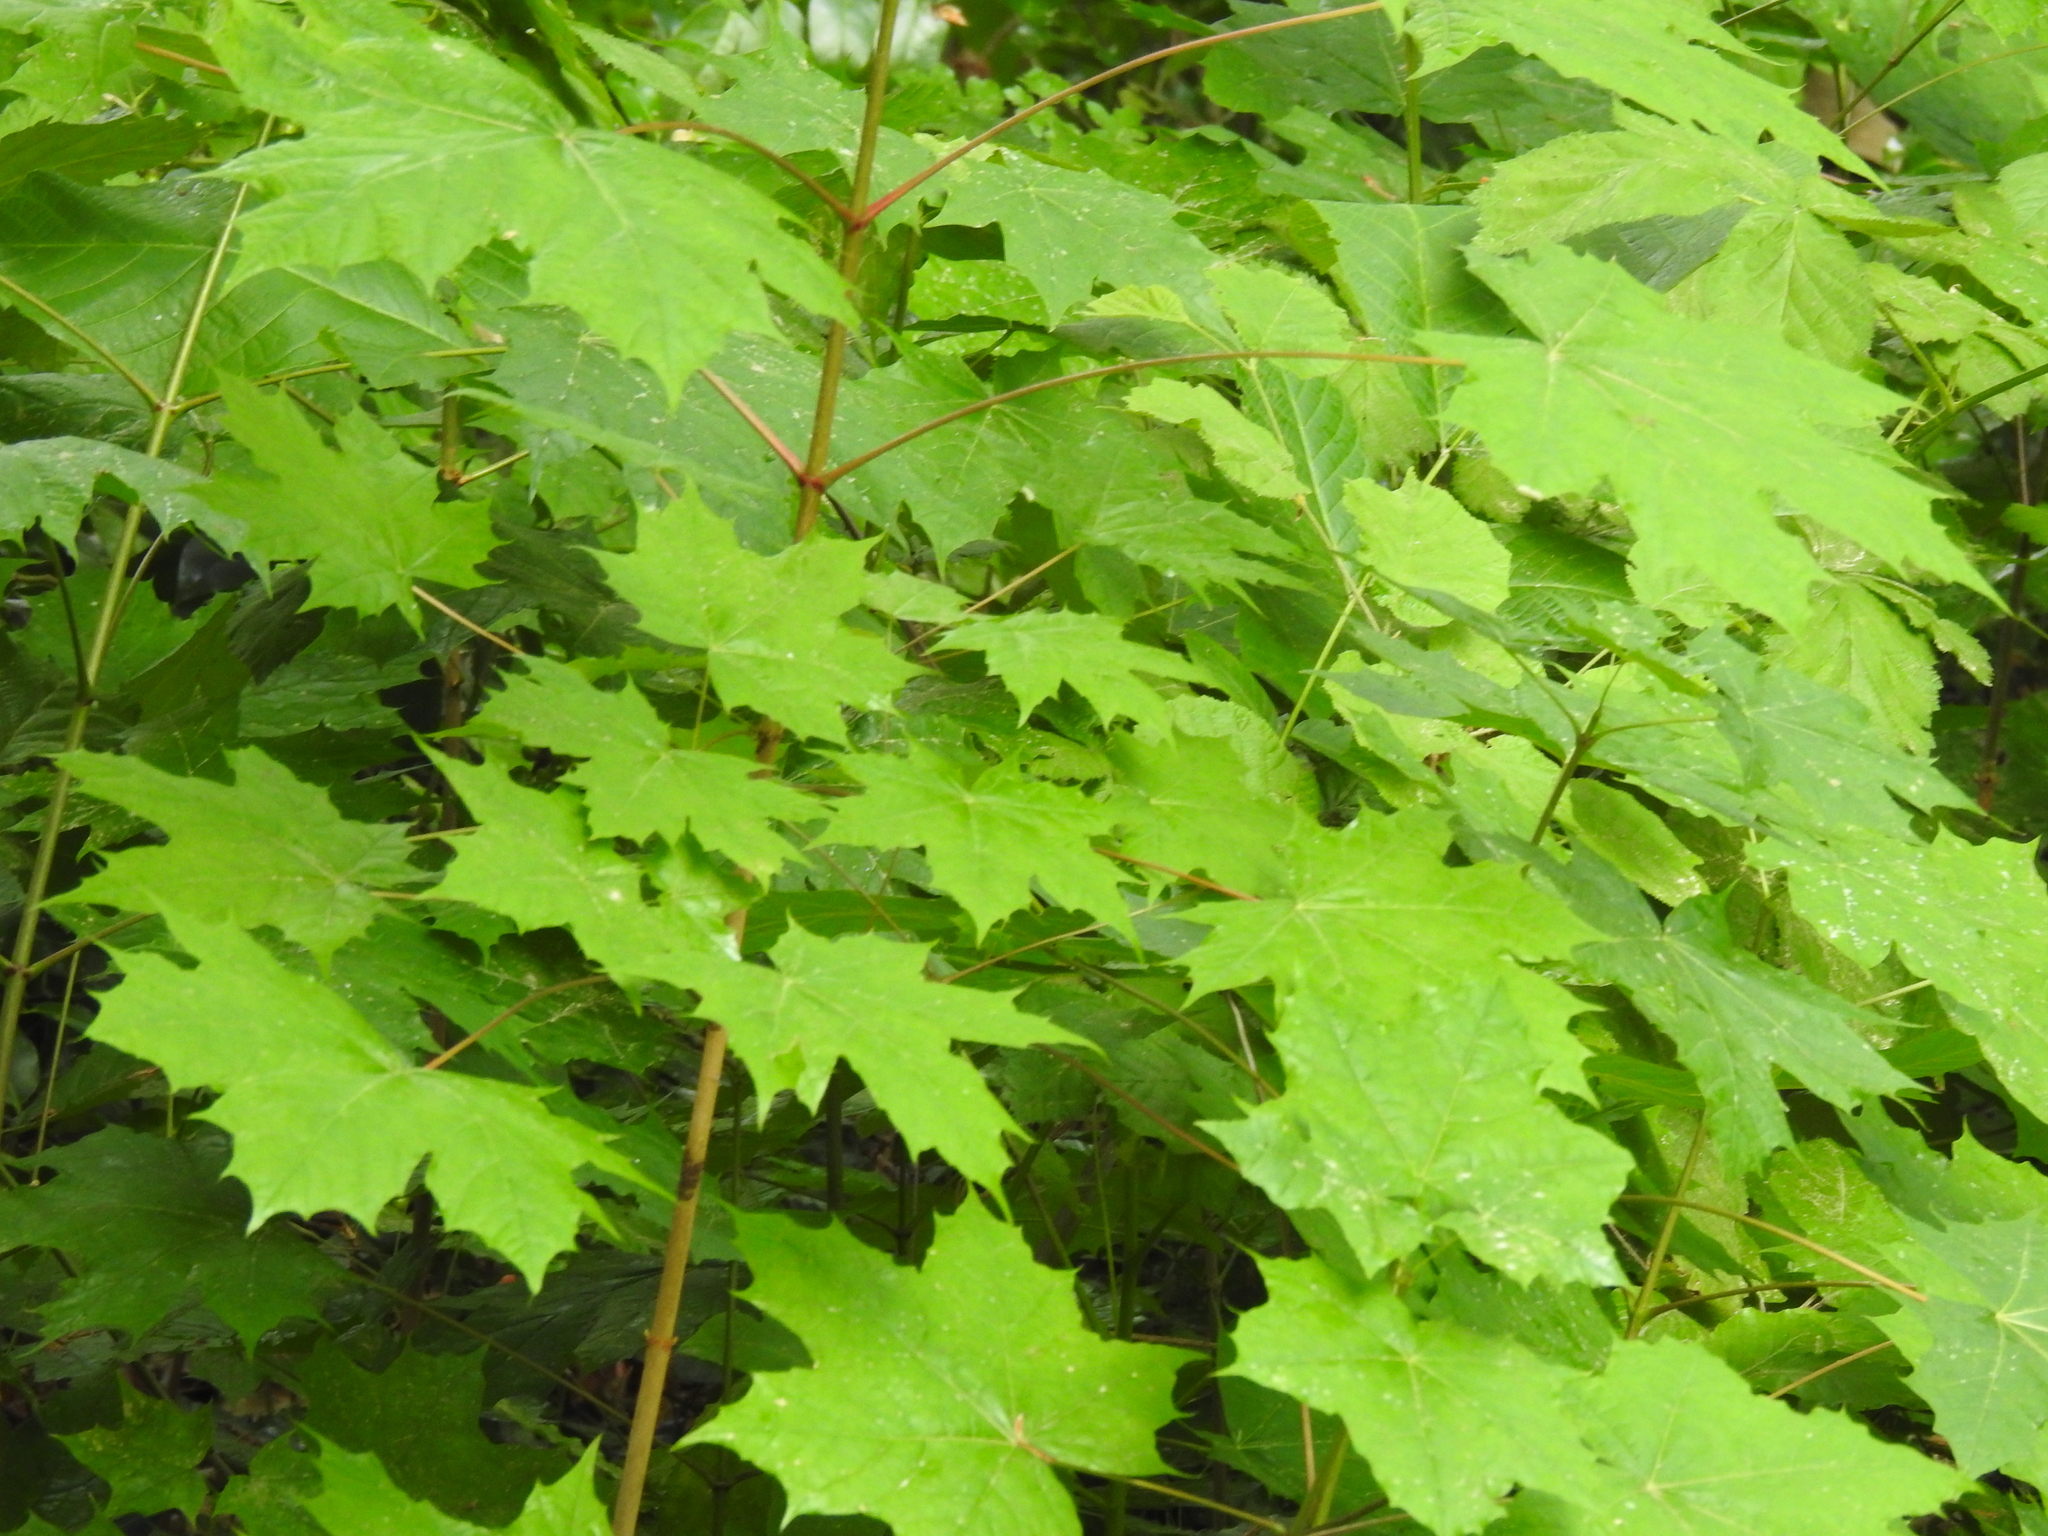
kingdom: Plantae
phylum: Tracheophyta
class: Magnoliopsida
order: Sapindales
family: Sapindaceae
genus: Acer
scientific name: Acer platanoides
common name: Norway maple
